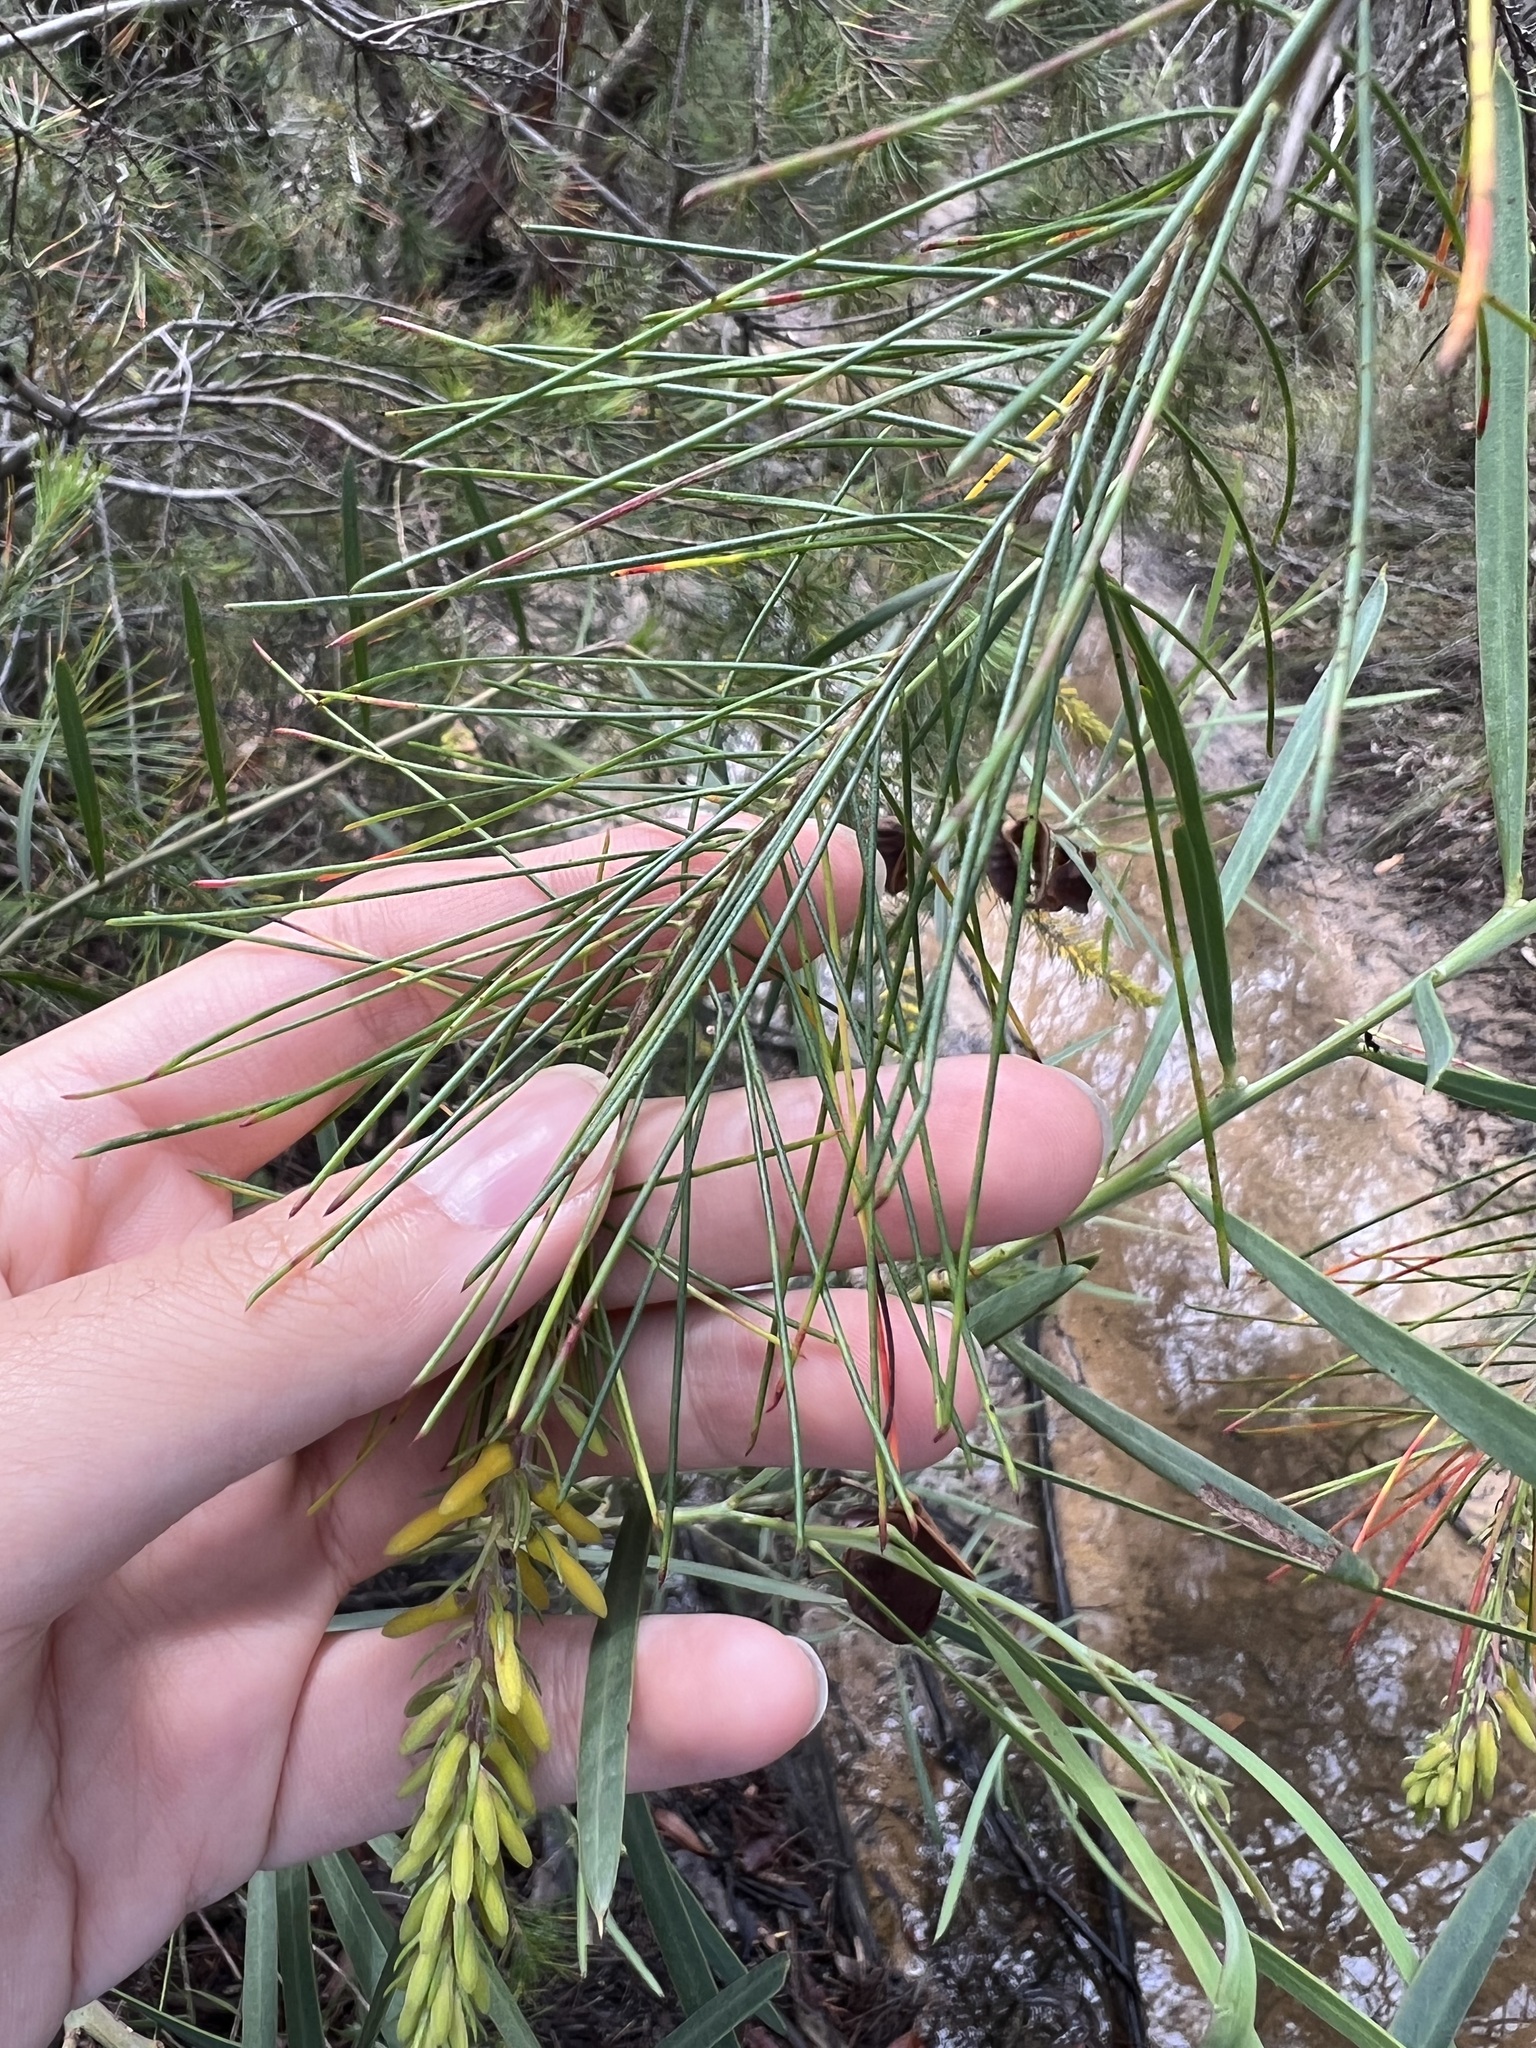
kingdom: Plantae
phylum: Tracheophyta
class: Magnoliopsida
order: Proteales
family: Proteaceae
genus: Persoonia
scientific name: Persoonia pinifolia
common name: Pine-leaf geebung
